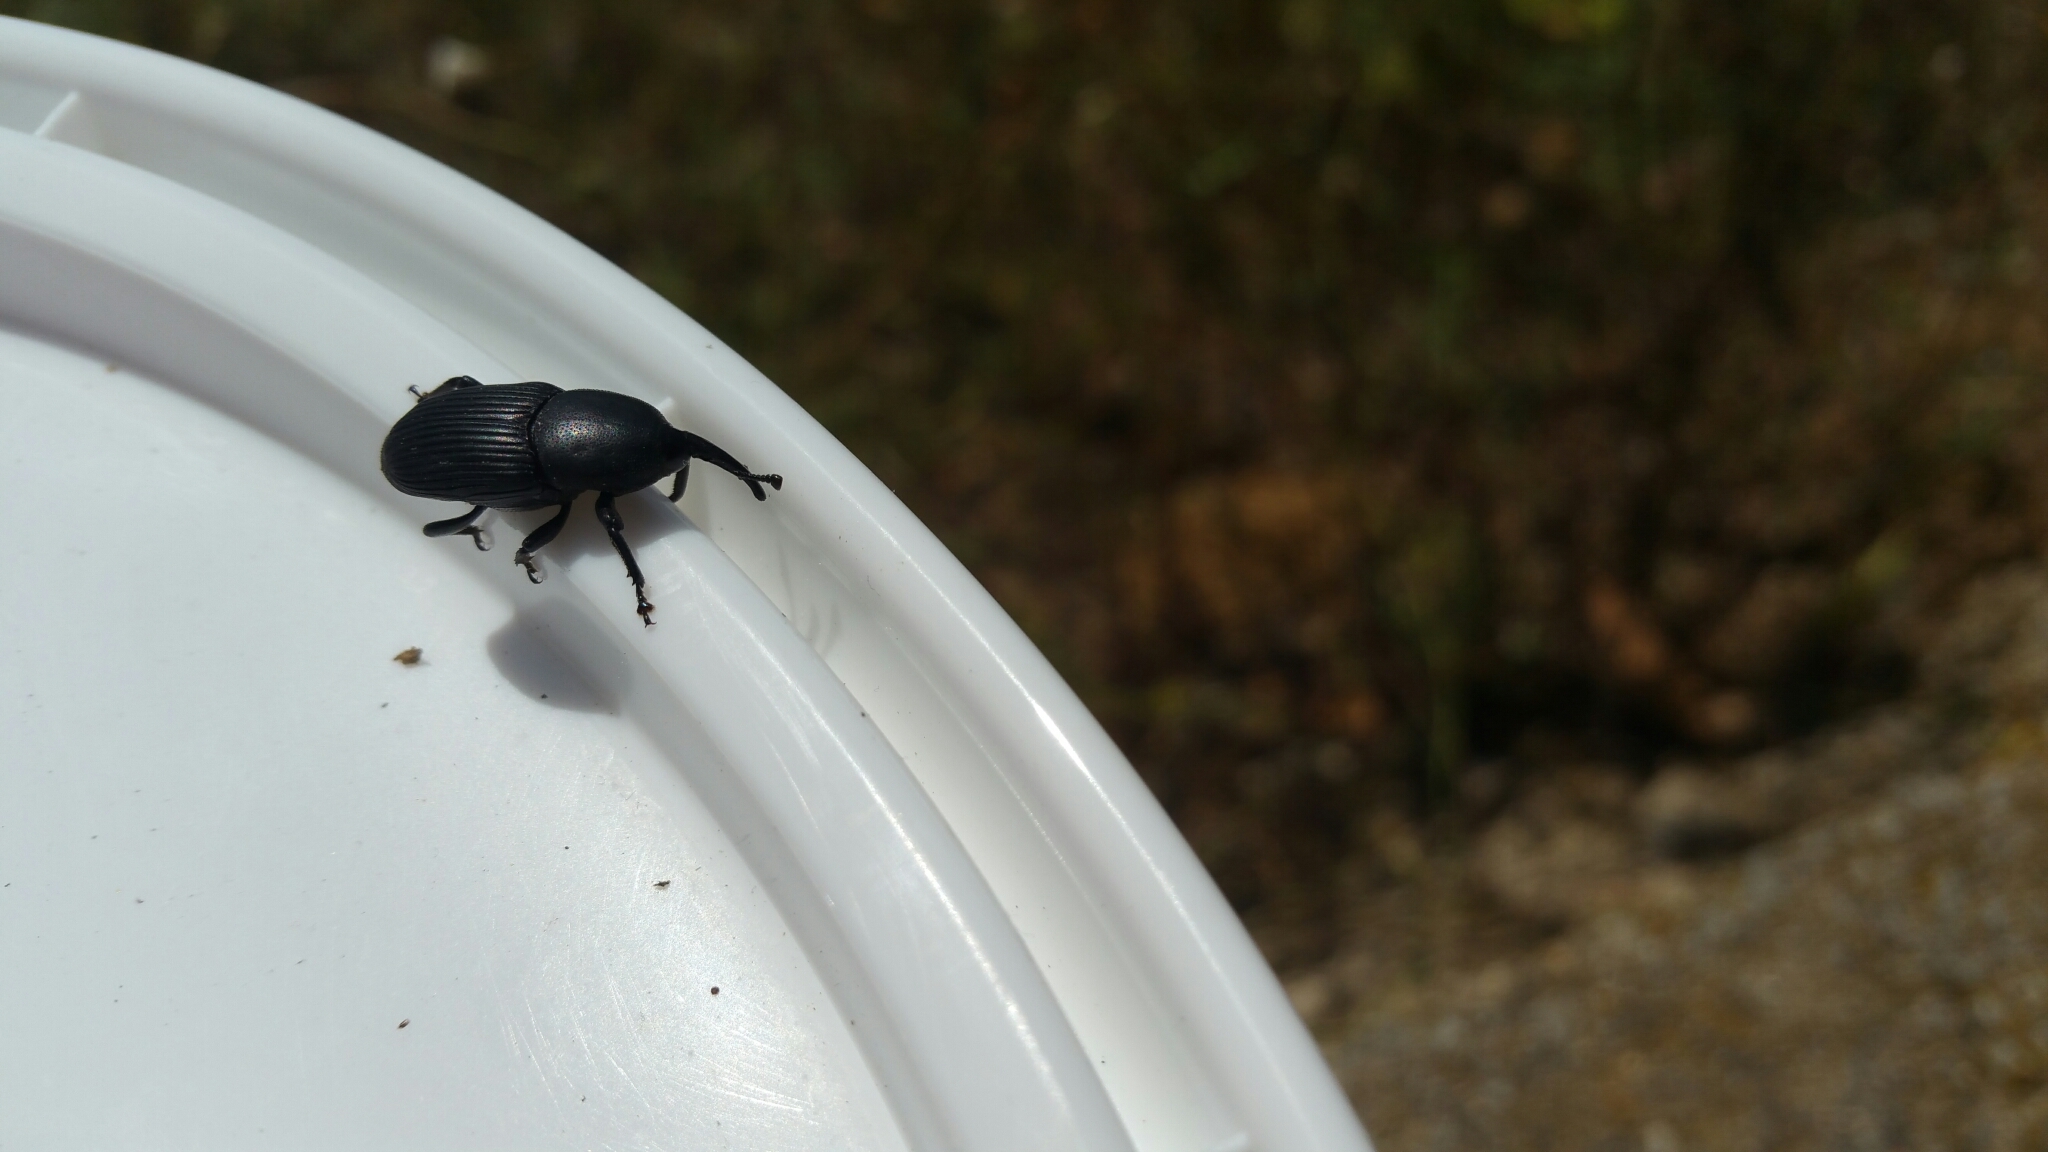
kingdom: Animalia
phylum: Arthropoda
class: Insecta
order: Coleoptera
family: Dryophthoridae
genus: Scyphophorus
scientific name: Scyphophorus acupunctatus
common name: Weevil
